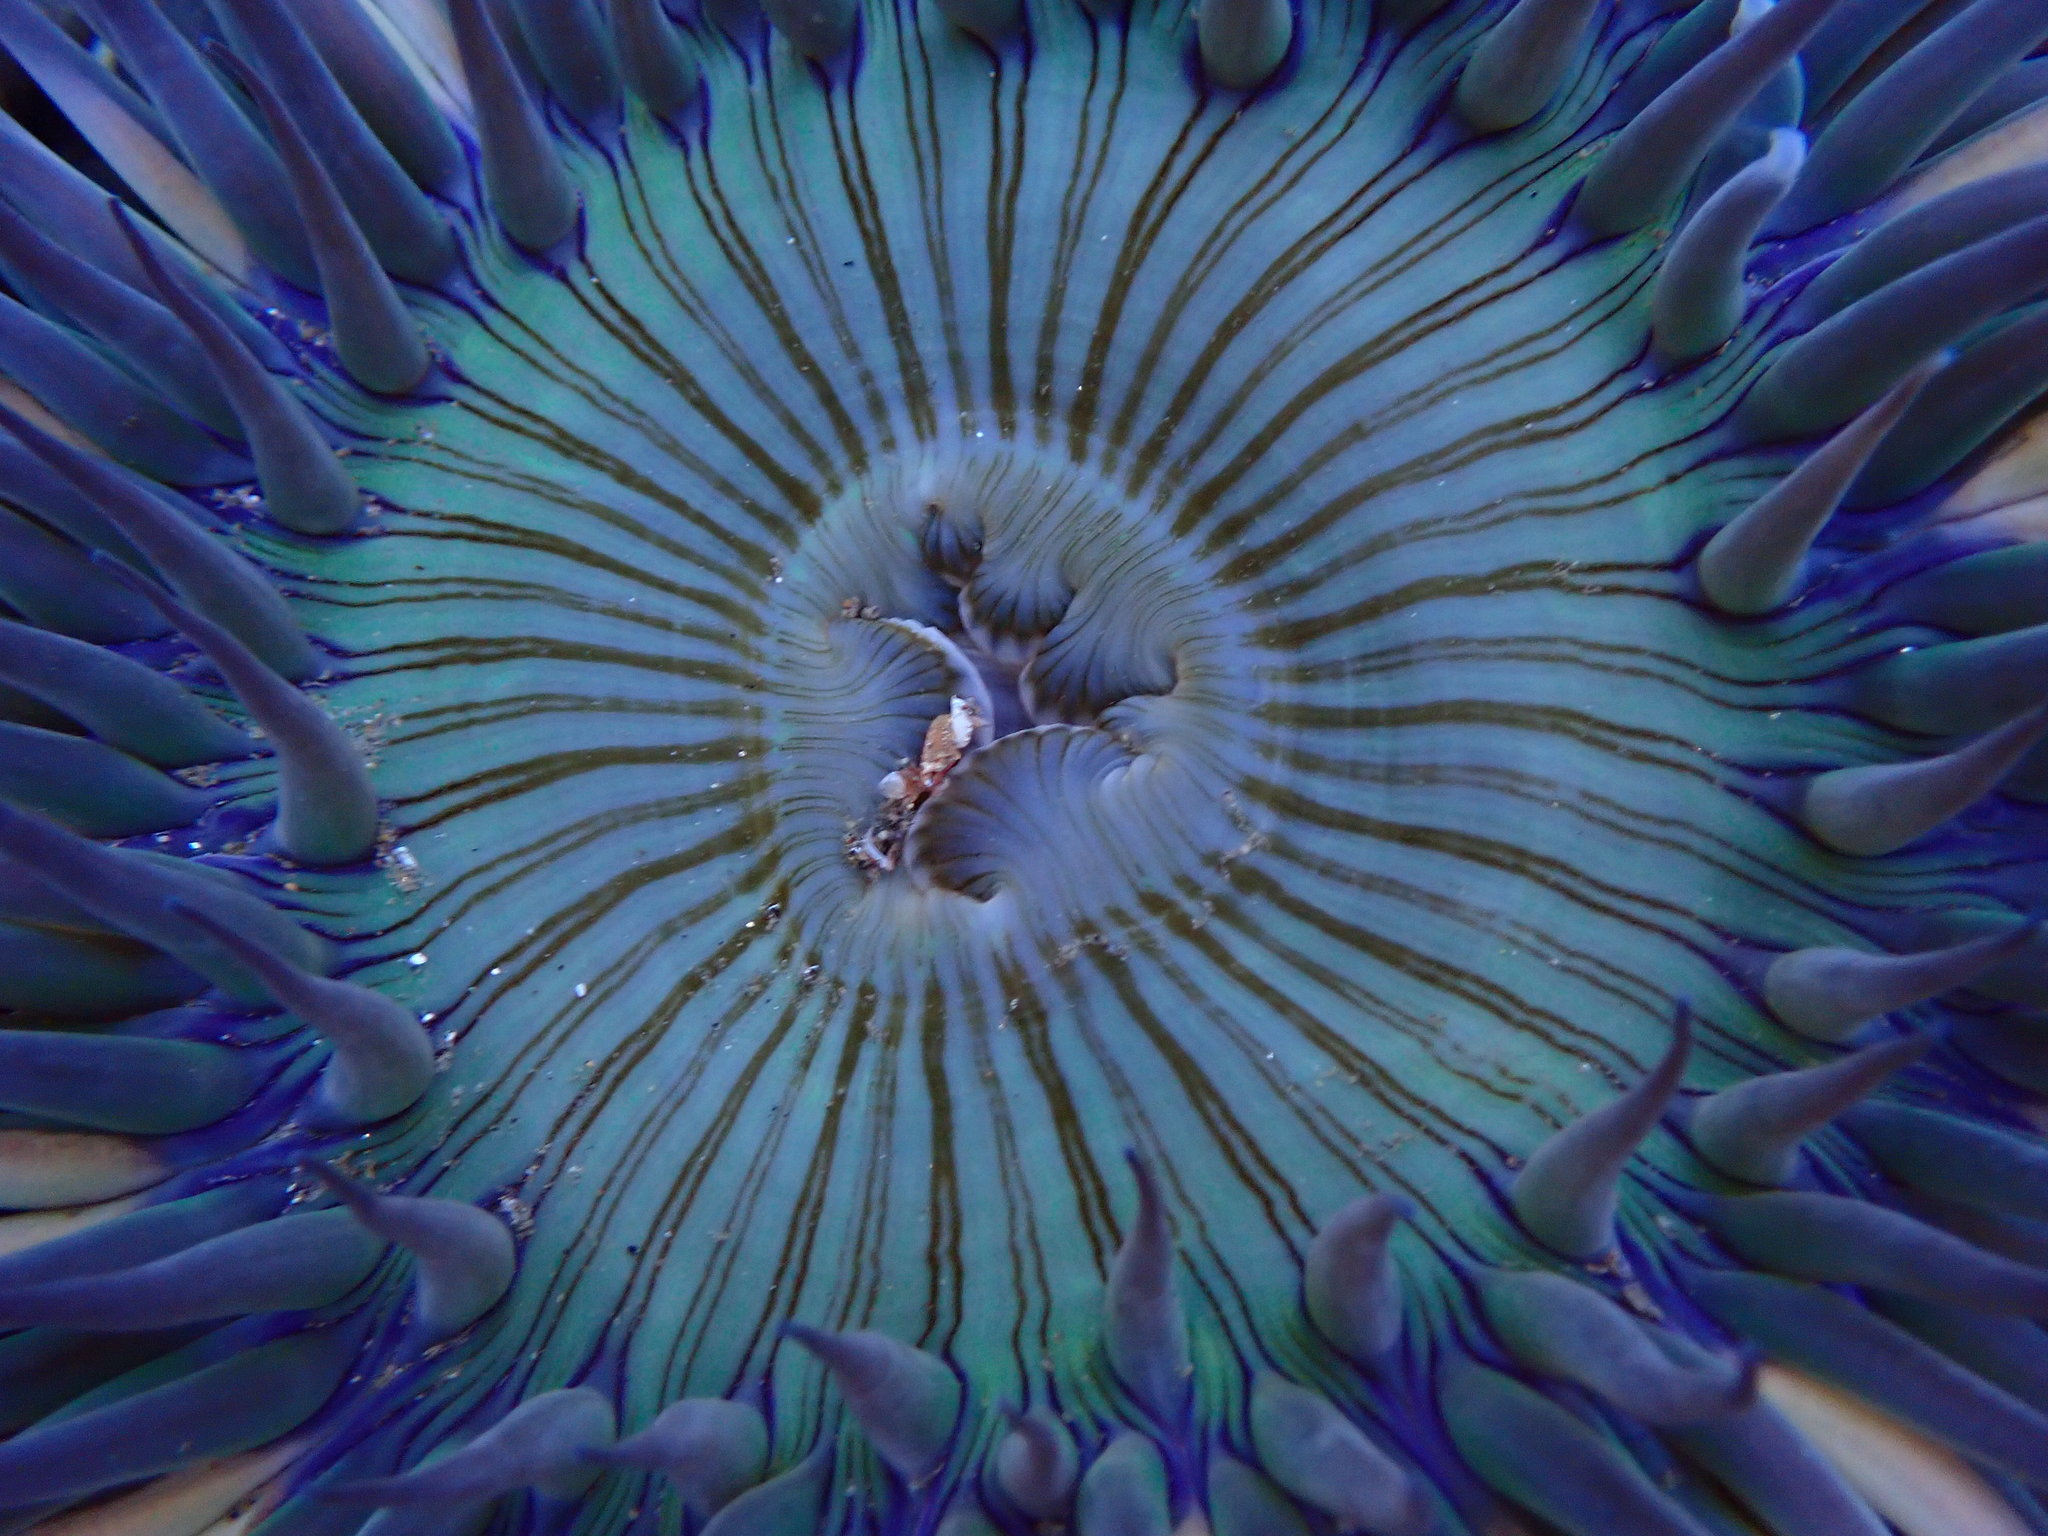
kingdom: Animalia
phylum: Cnidaria
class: Anthozoa
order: Actiniaria
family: Actiniidae
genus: Anthopleura
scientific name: Anthopleura sola
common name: Sun anemone
